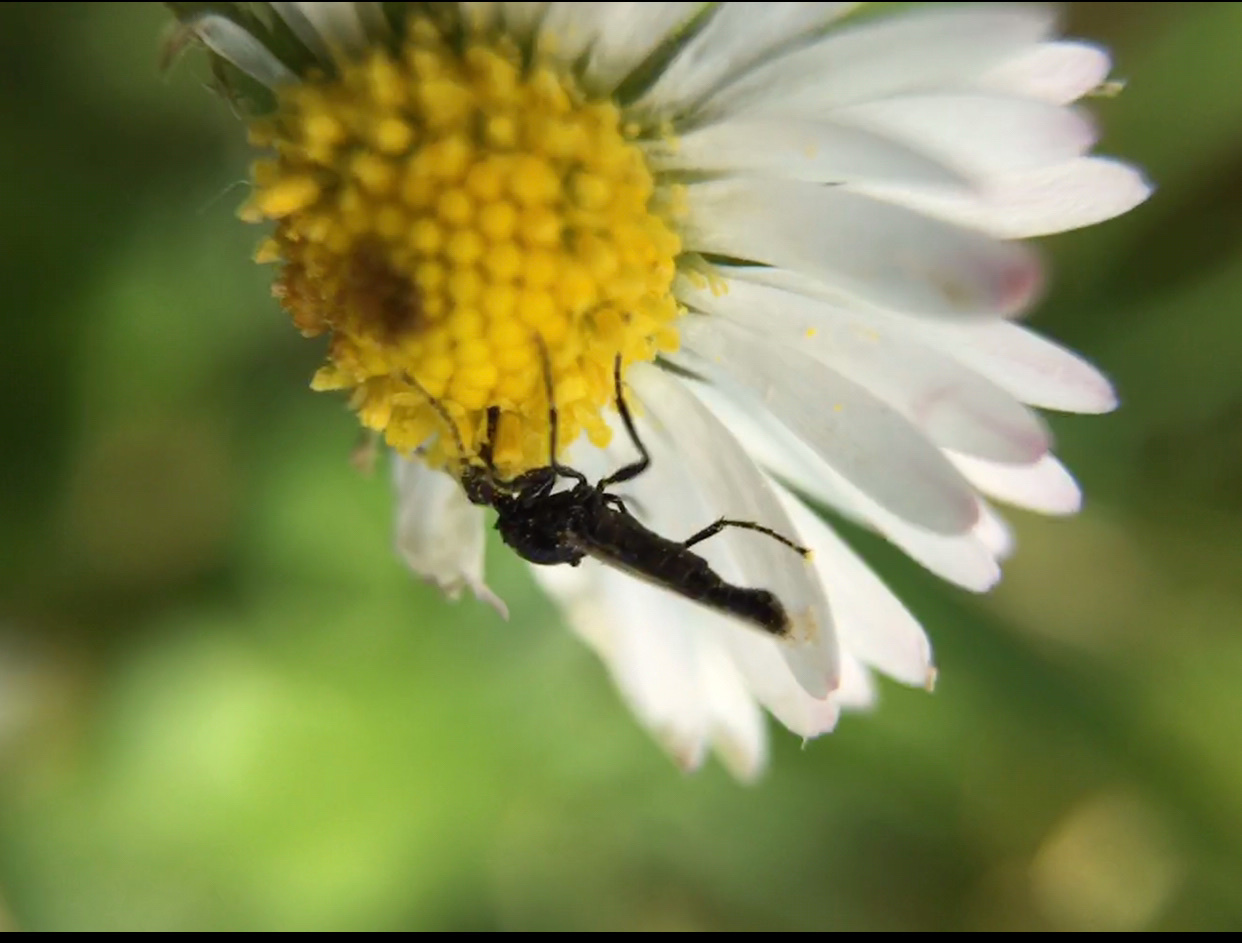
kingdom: Animalia
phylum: Arthropoda
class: Insecta
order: Diptera
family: Bibionidae
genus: Dilophus
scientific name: Dilophus
